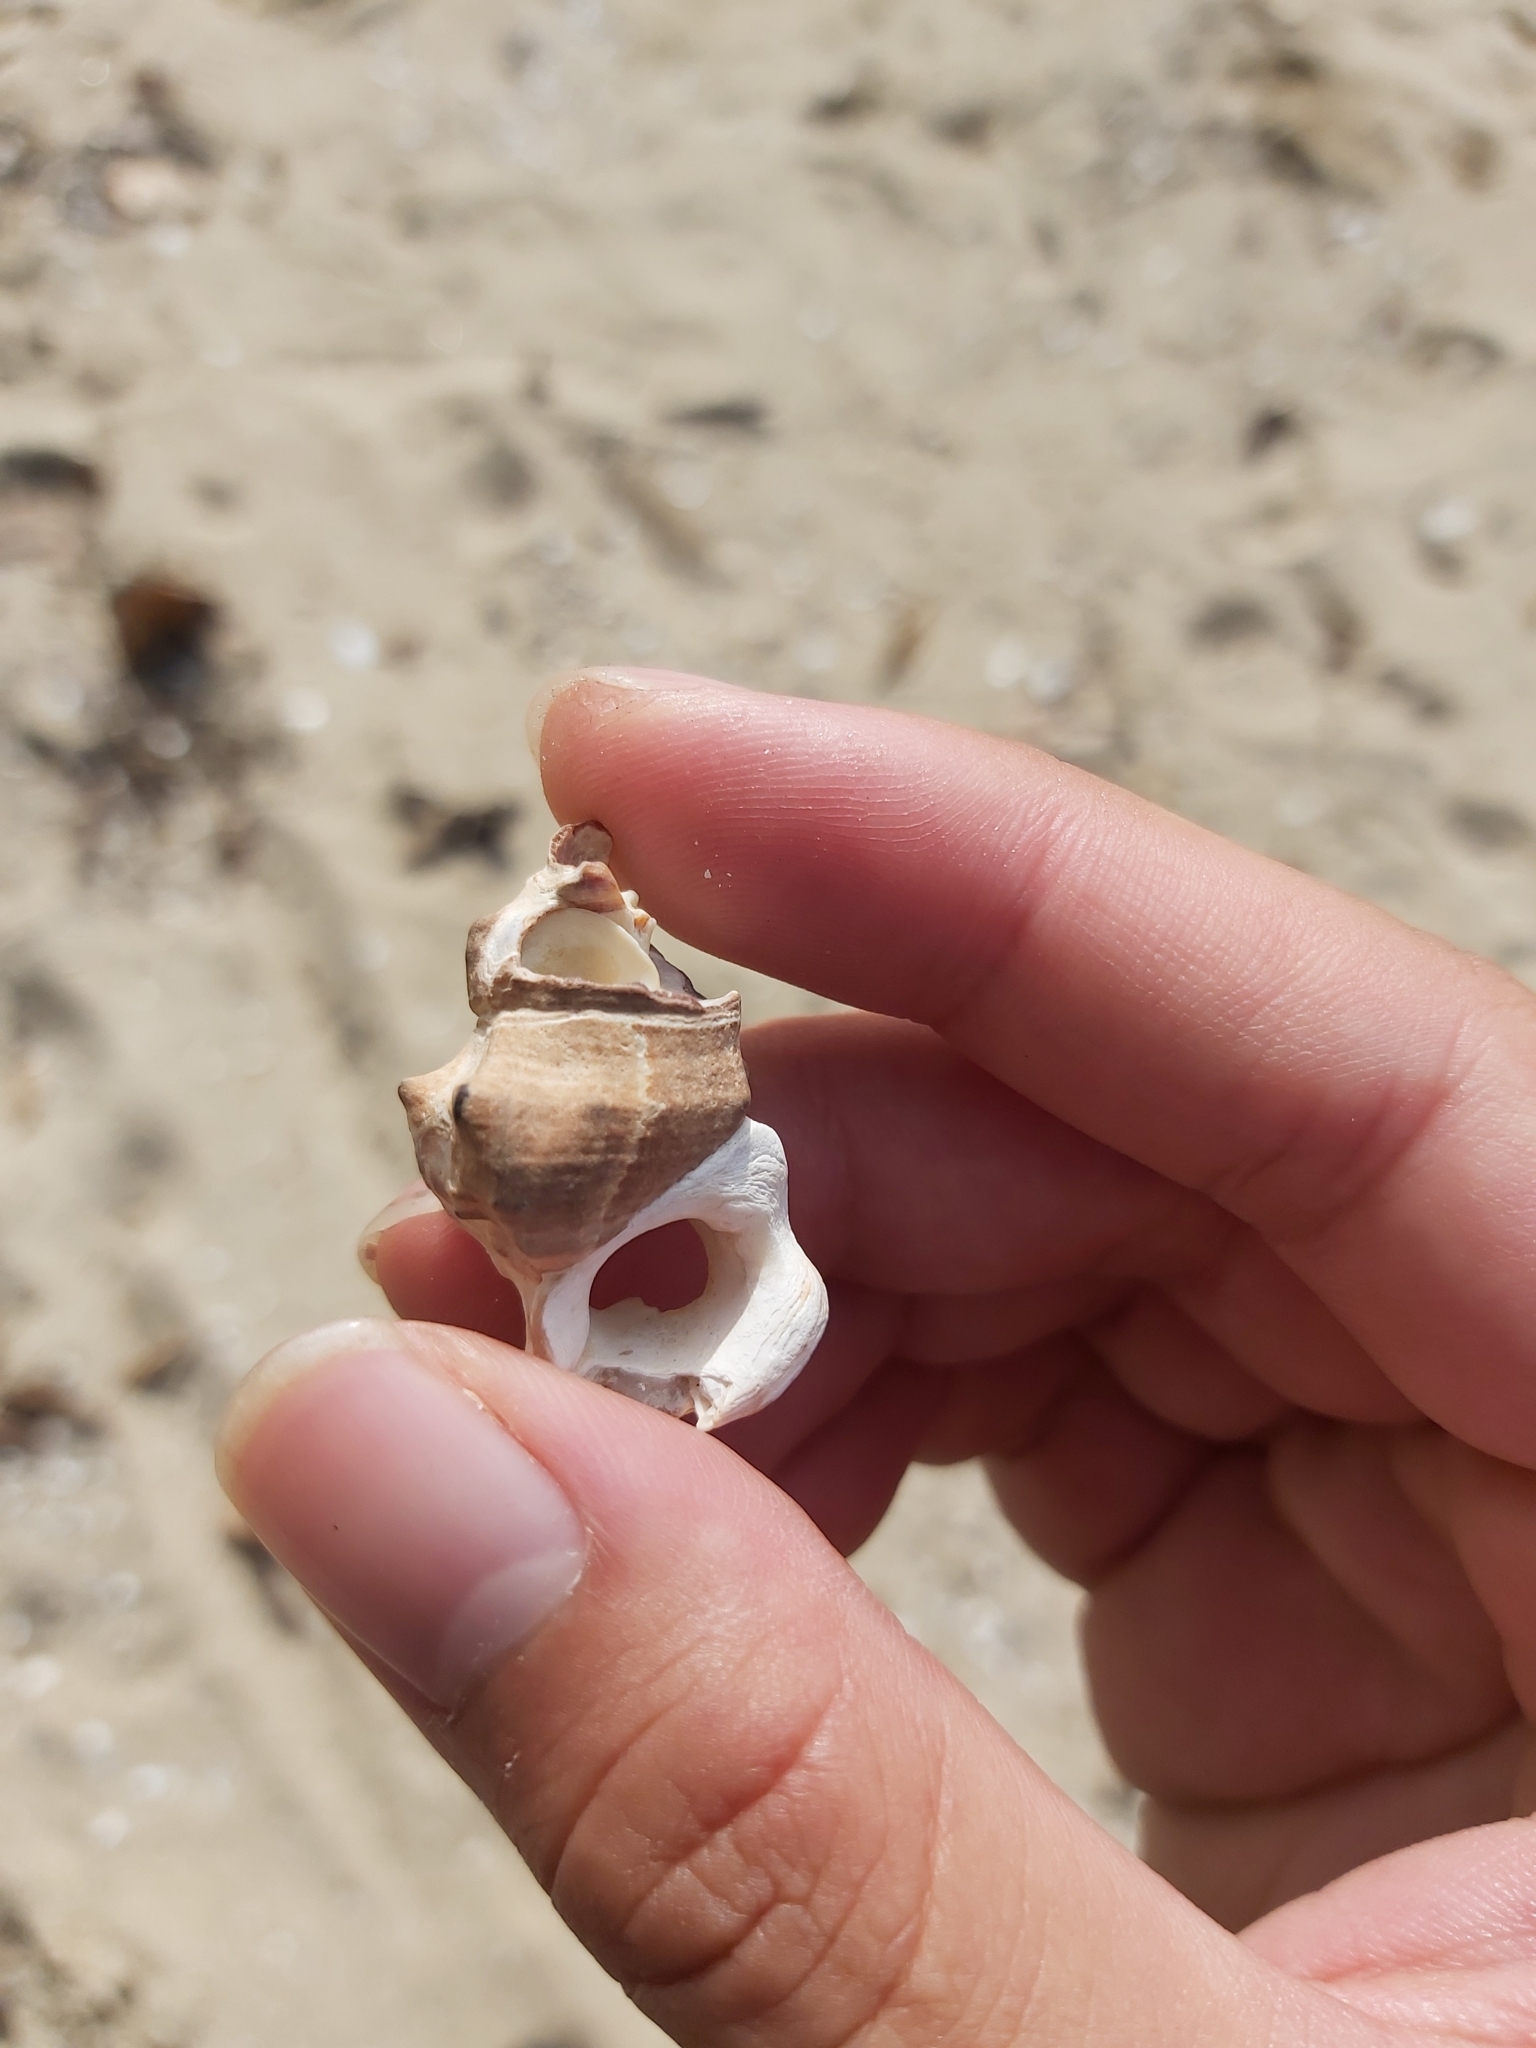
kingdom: Animalia
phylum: Mollusca
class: Gastropoda
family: Batillariidae
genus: Pyrazus
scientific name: Pyrazus ebeninus
